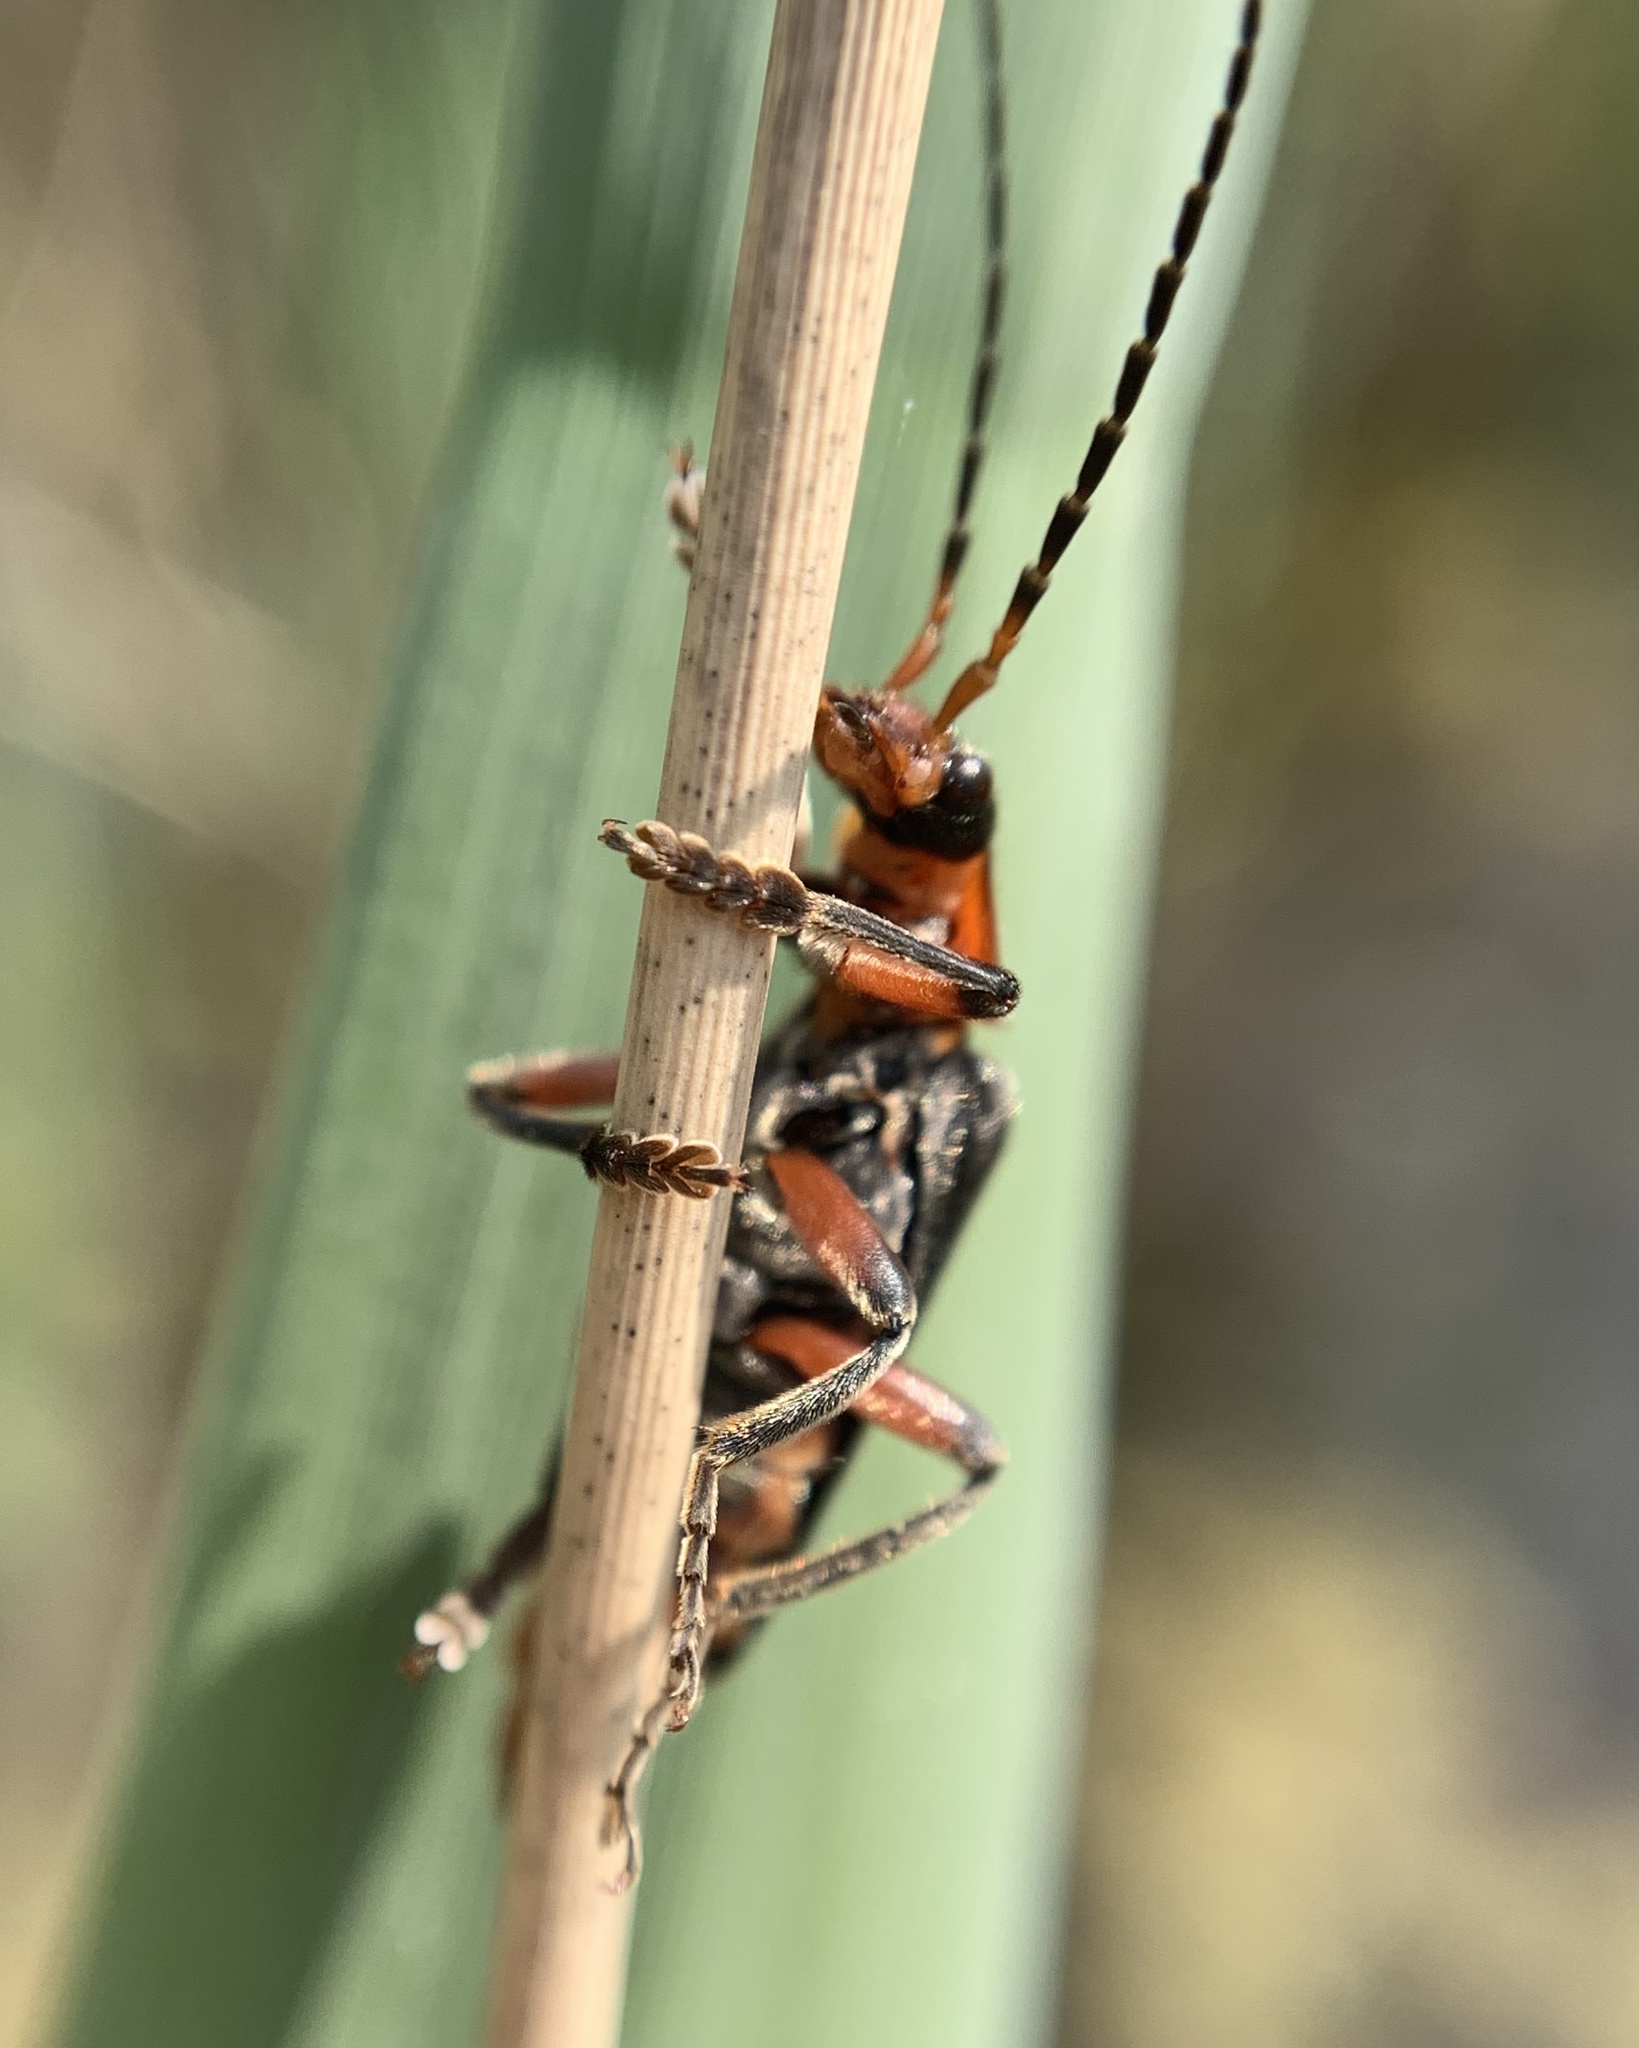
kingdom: Animalia
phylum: Arthropoda
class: Insecta
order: Coleoptera
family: Cantharidae
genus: Cantharis
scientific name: Cantharis rustica
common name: Soldier beetle
